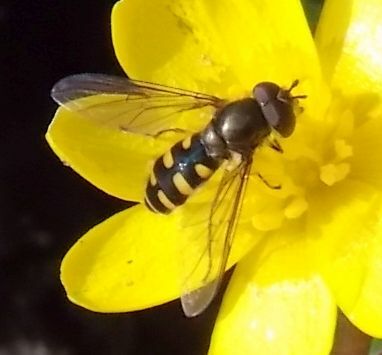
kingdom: Animalia
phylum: Arthropoda
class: Insecta
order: Diptera
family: Syrphidae
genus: Melangyna
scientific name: Melangyna lasiophthalma
